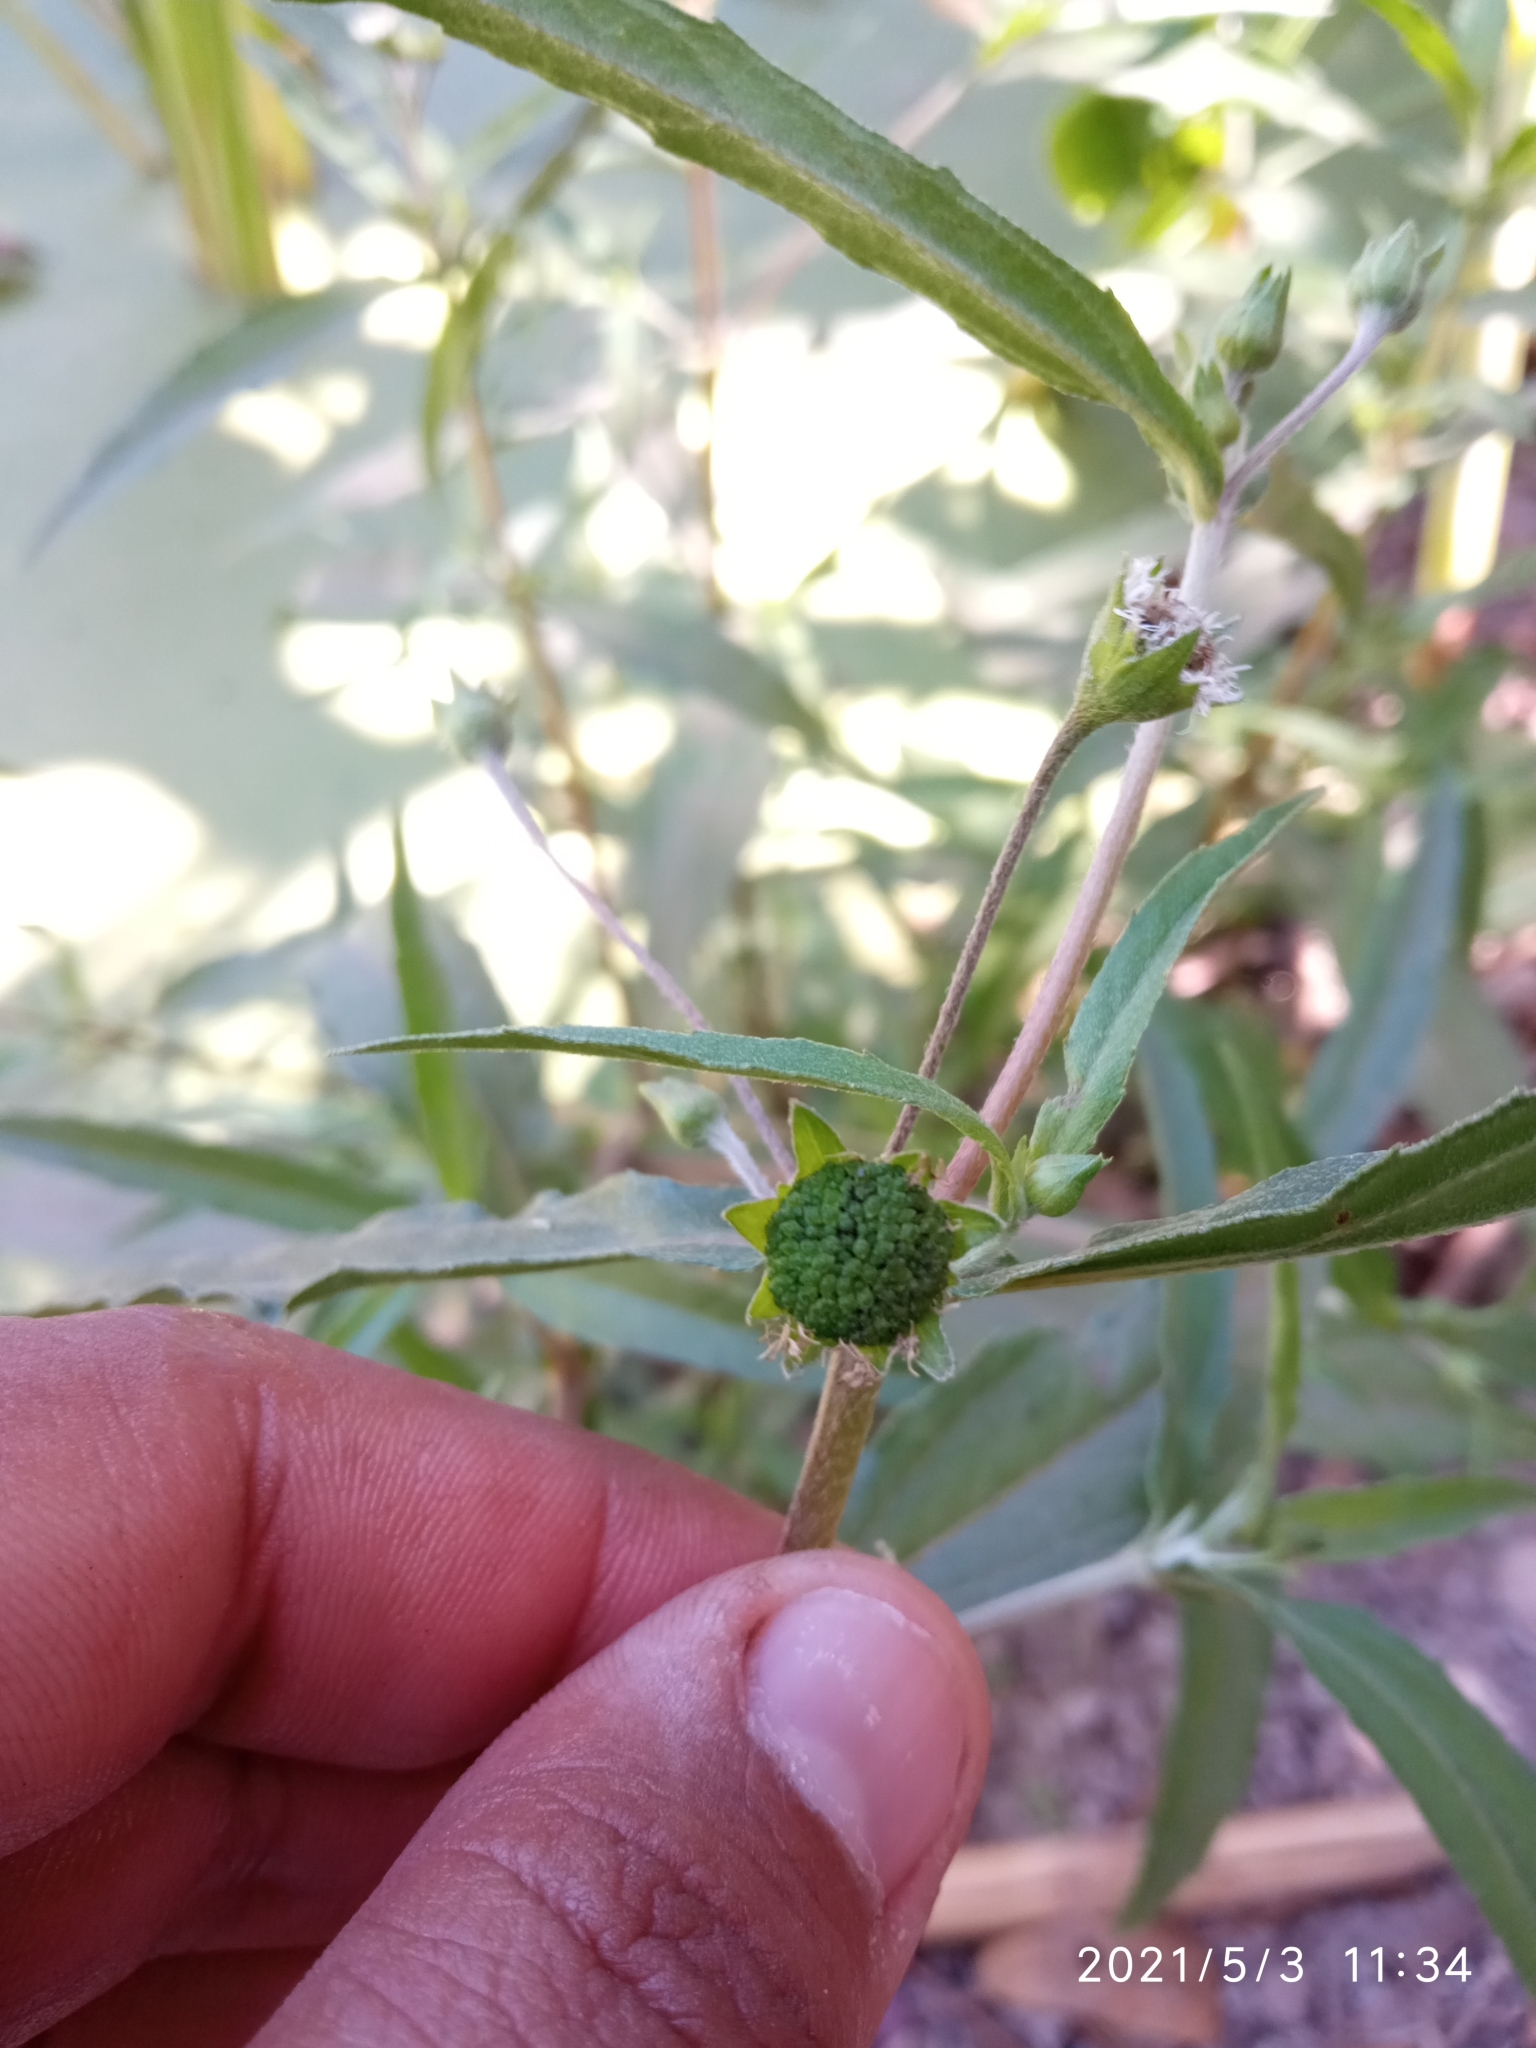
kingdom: Plantae
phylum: Tracheophyta
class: Magnoliopsida
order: Asterales
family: Asteraceae
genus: Eclipta
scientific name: Eclipta prostrata
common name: False daisy
